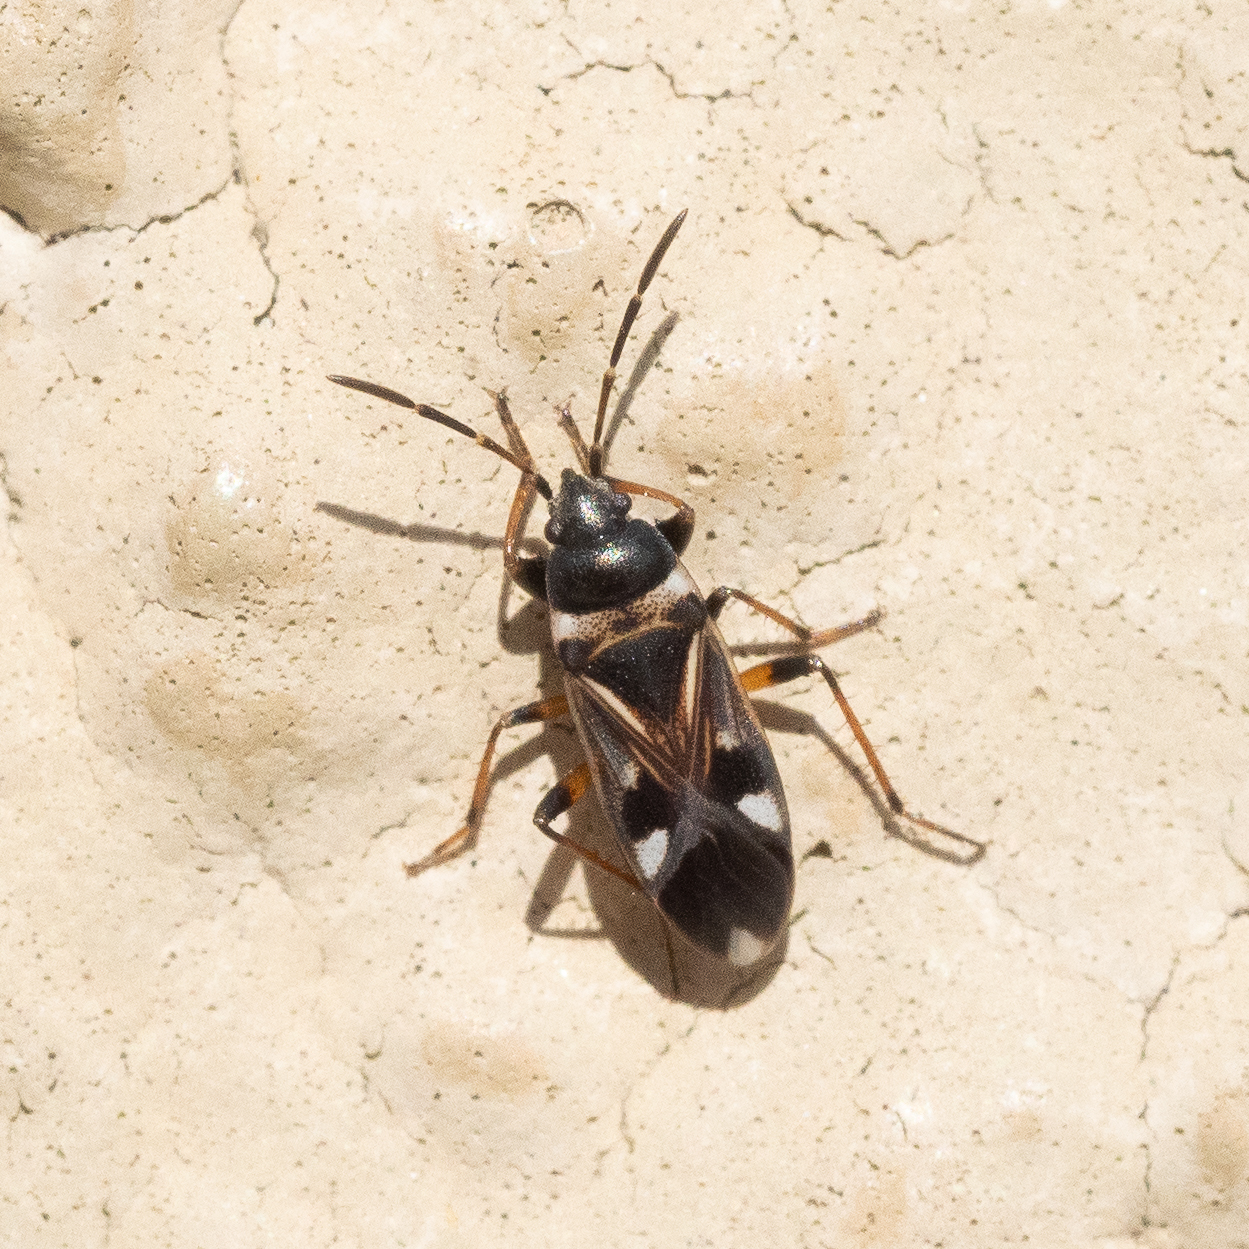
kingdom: Animalia
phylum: Arthropoda
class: Insecta
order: Hemiptera
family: Rhyparochromidae
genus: Raglius
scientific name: Raglius alboacuminatus
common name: Dirt-colored seed bug
